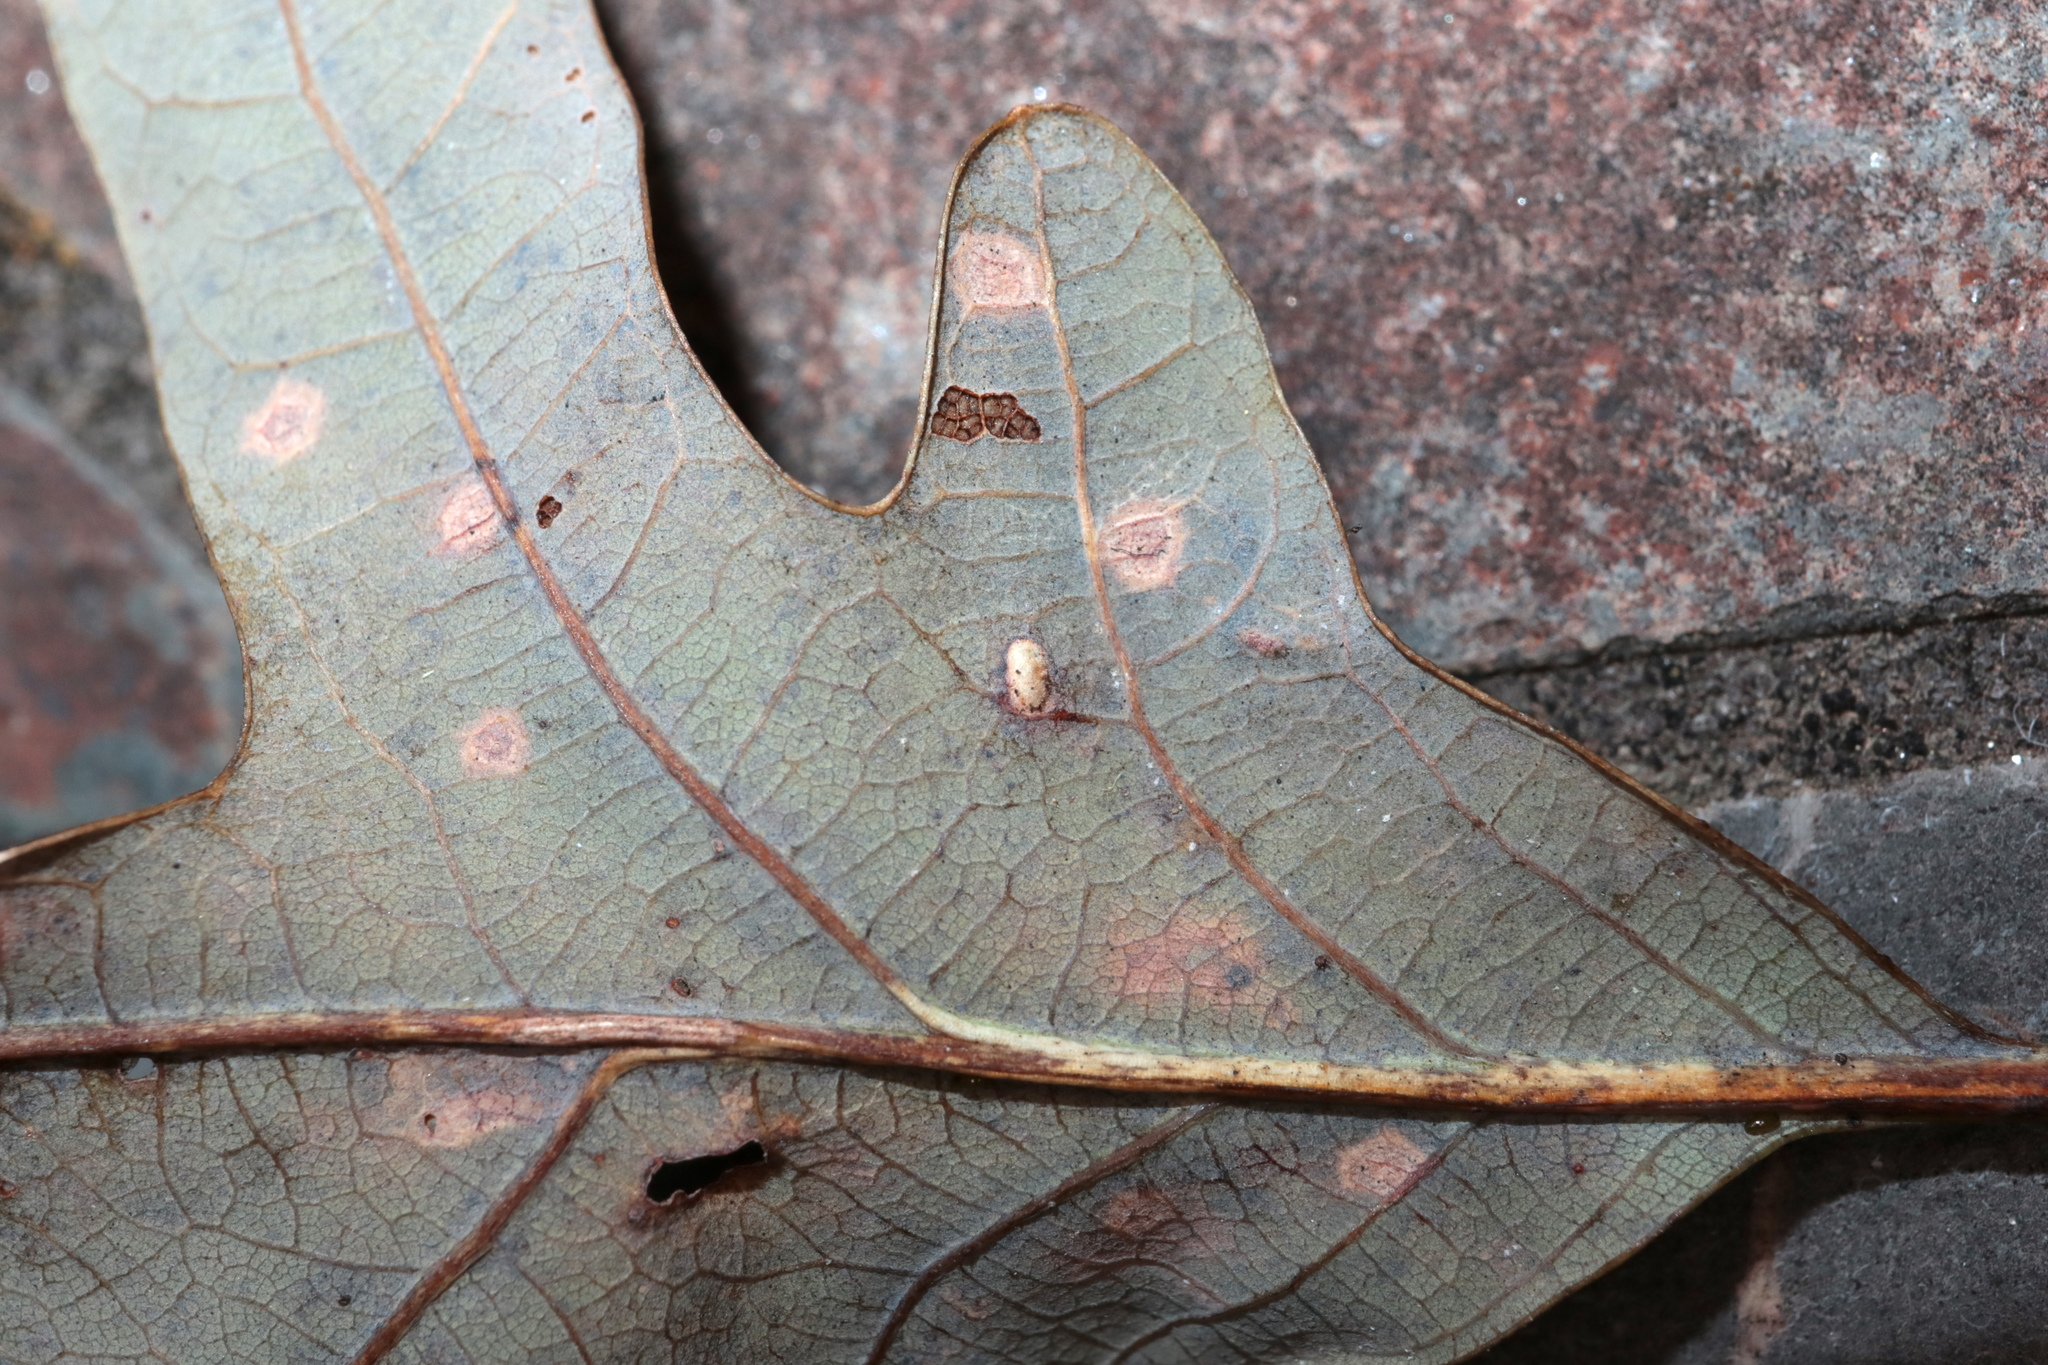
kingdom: Animalia
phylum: Arthropoda
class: Insecta
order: Hymenoptera
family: Cynipidae
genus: Neuroterus
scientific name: Neuroterus quercusverrucarum
